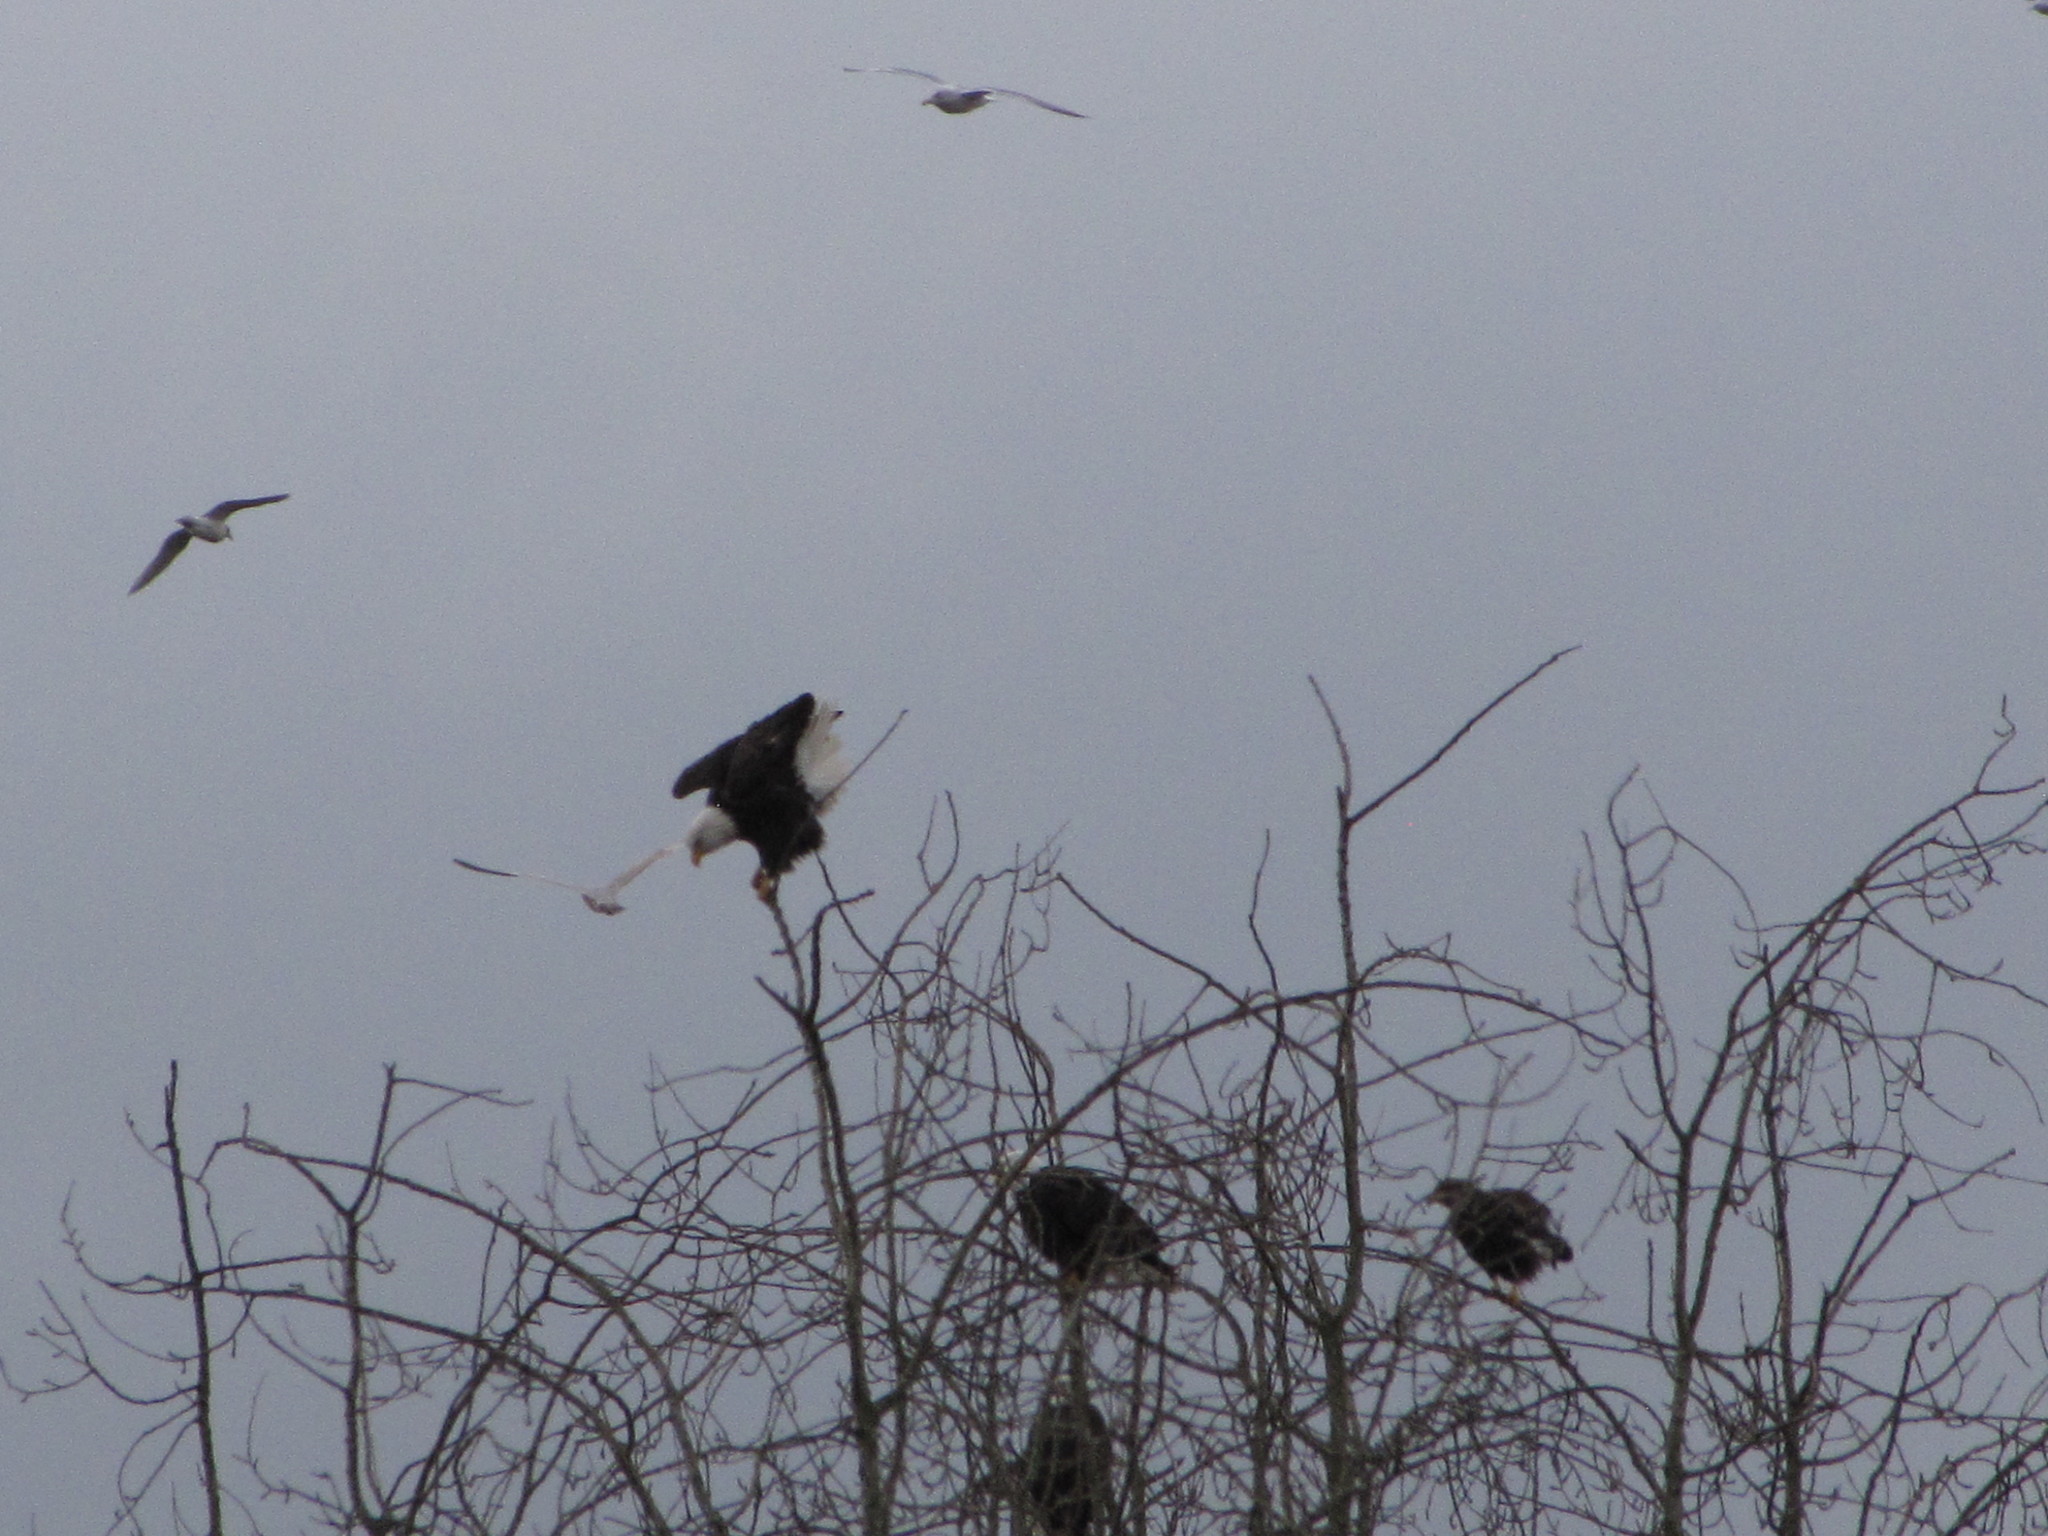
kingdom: Animalia
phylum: Chordata
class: Aves
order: Accipitriformes
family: Accipitridae
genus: Haliaeetus
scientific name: Haliaeetus leucocephalus
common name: Bald eagle
